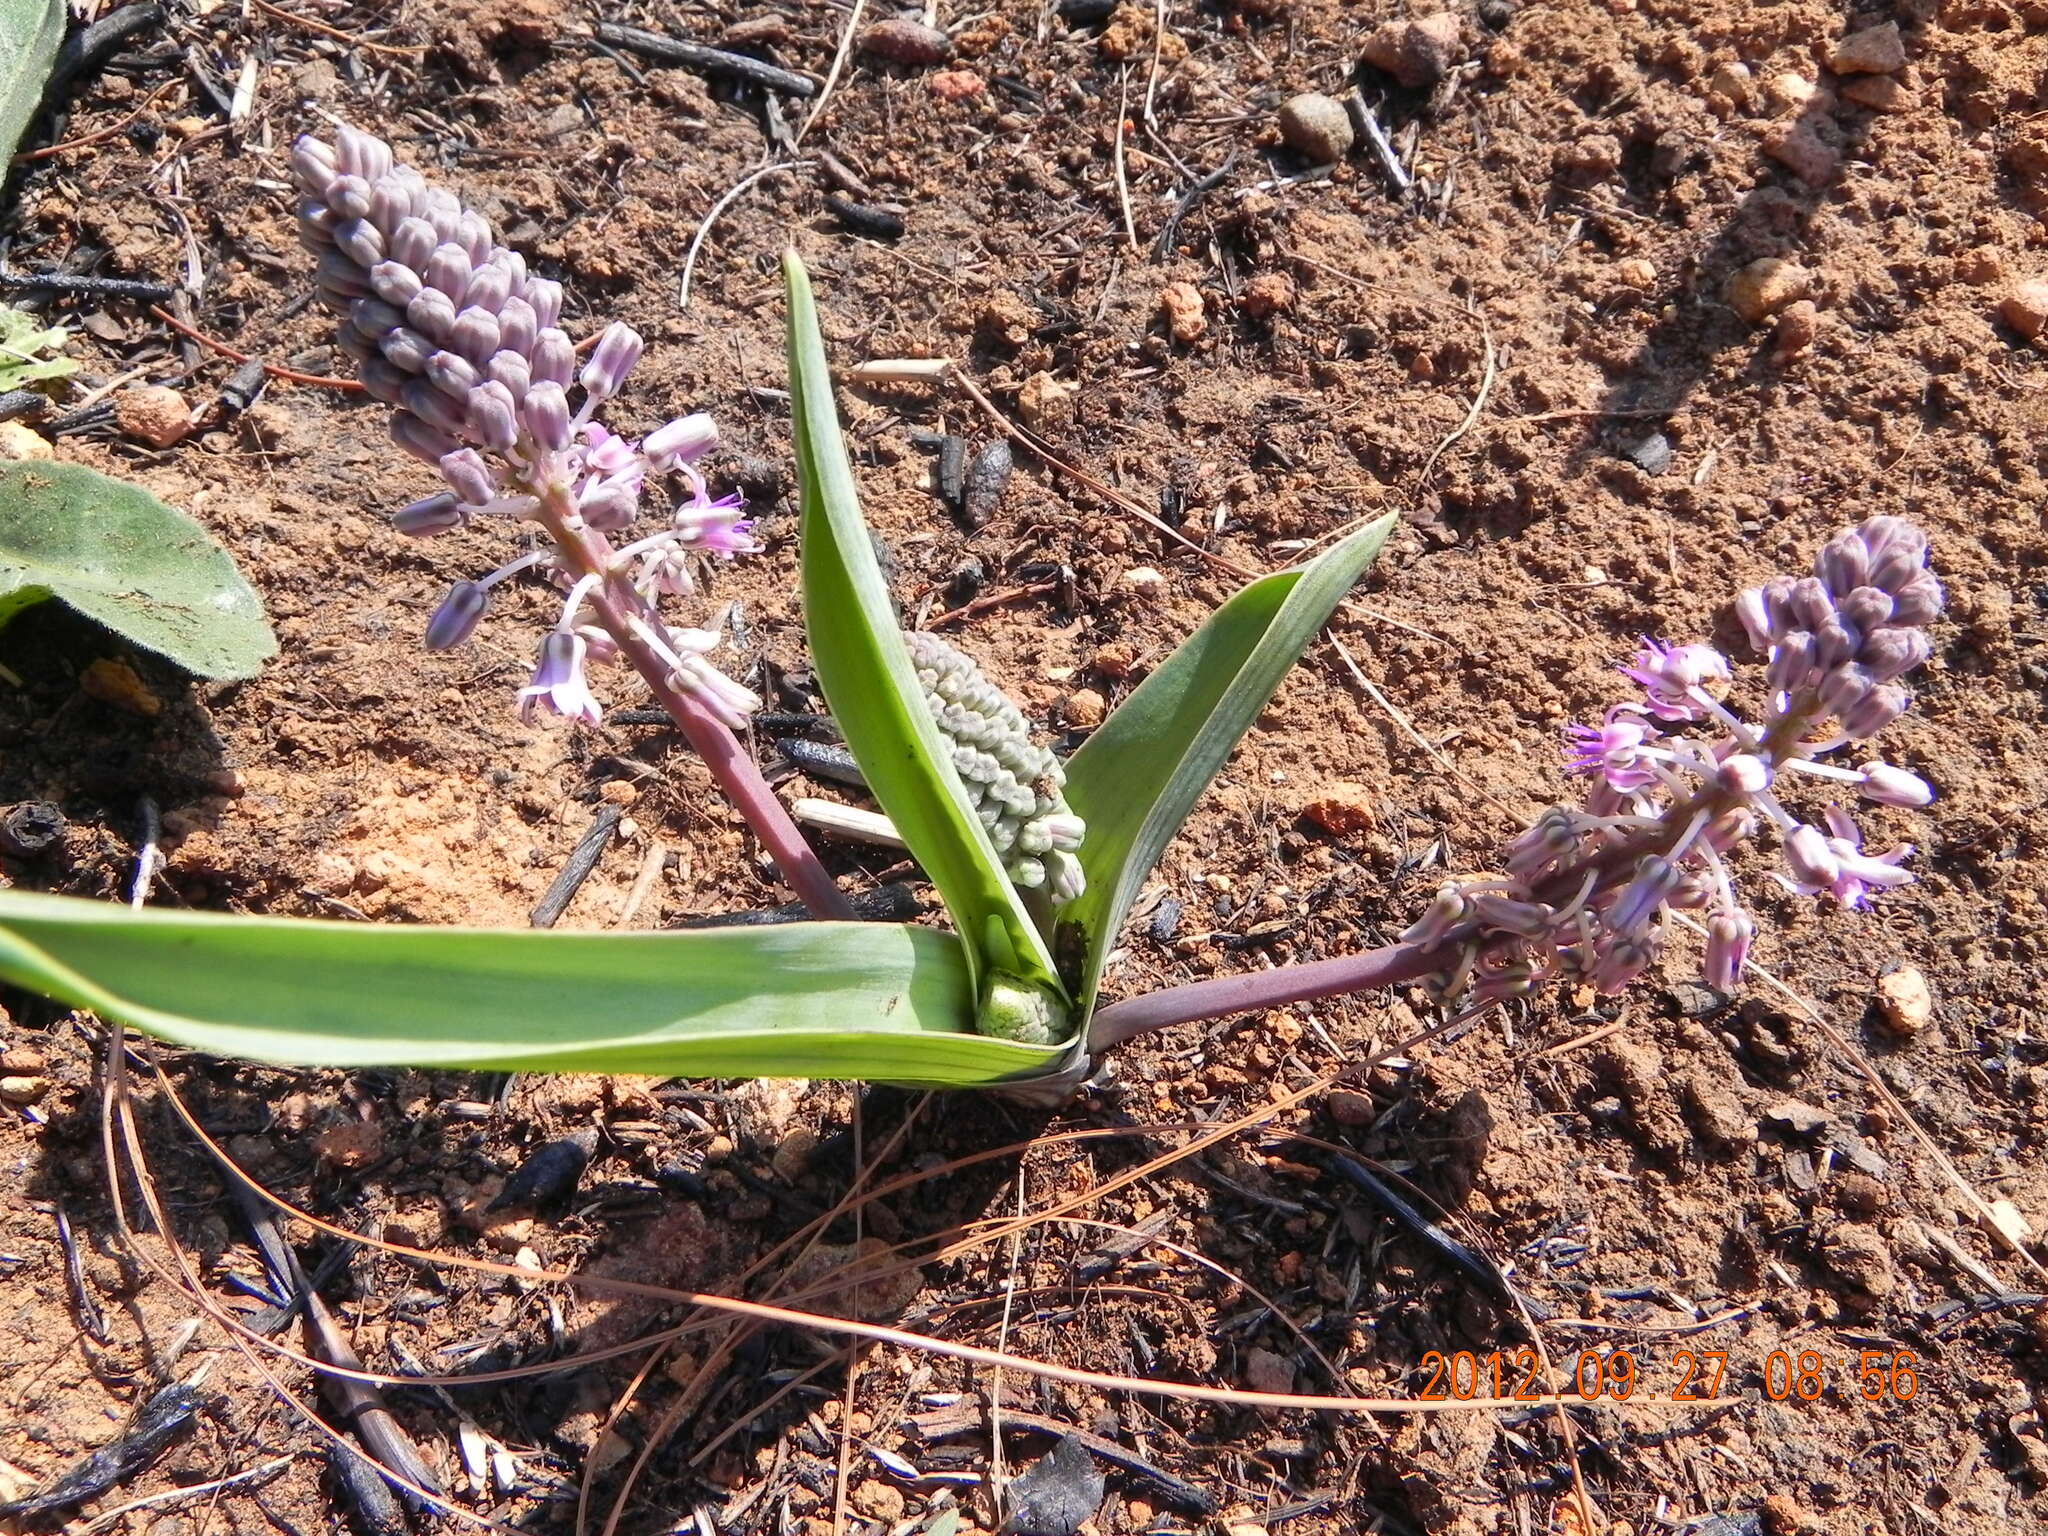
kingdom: Plantae
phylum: Tracheophyta
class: Liliopsida
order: Asparagales
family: Asparagaceae
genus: Ledebouria
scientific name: Ledebouria sandersonii
